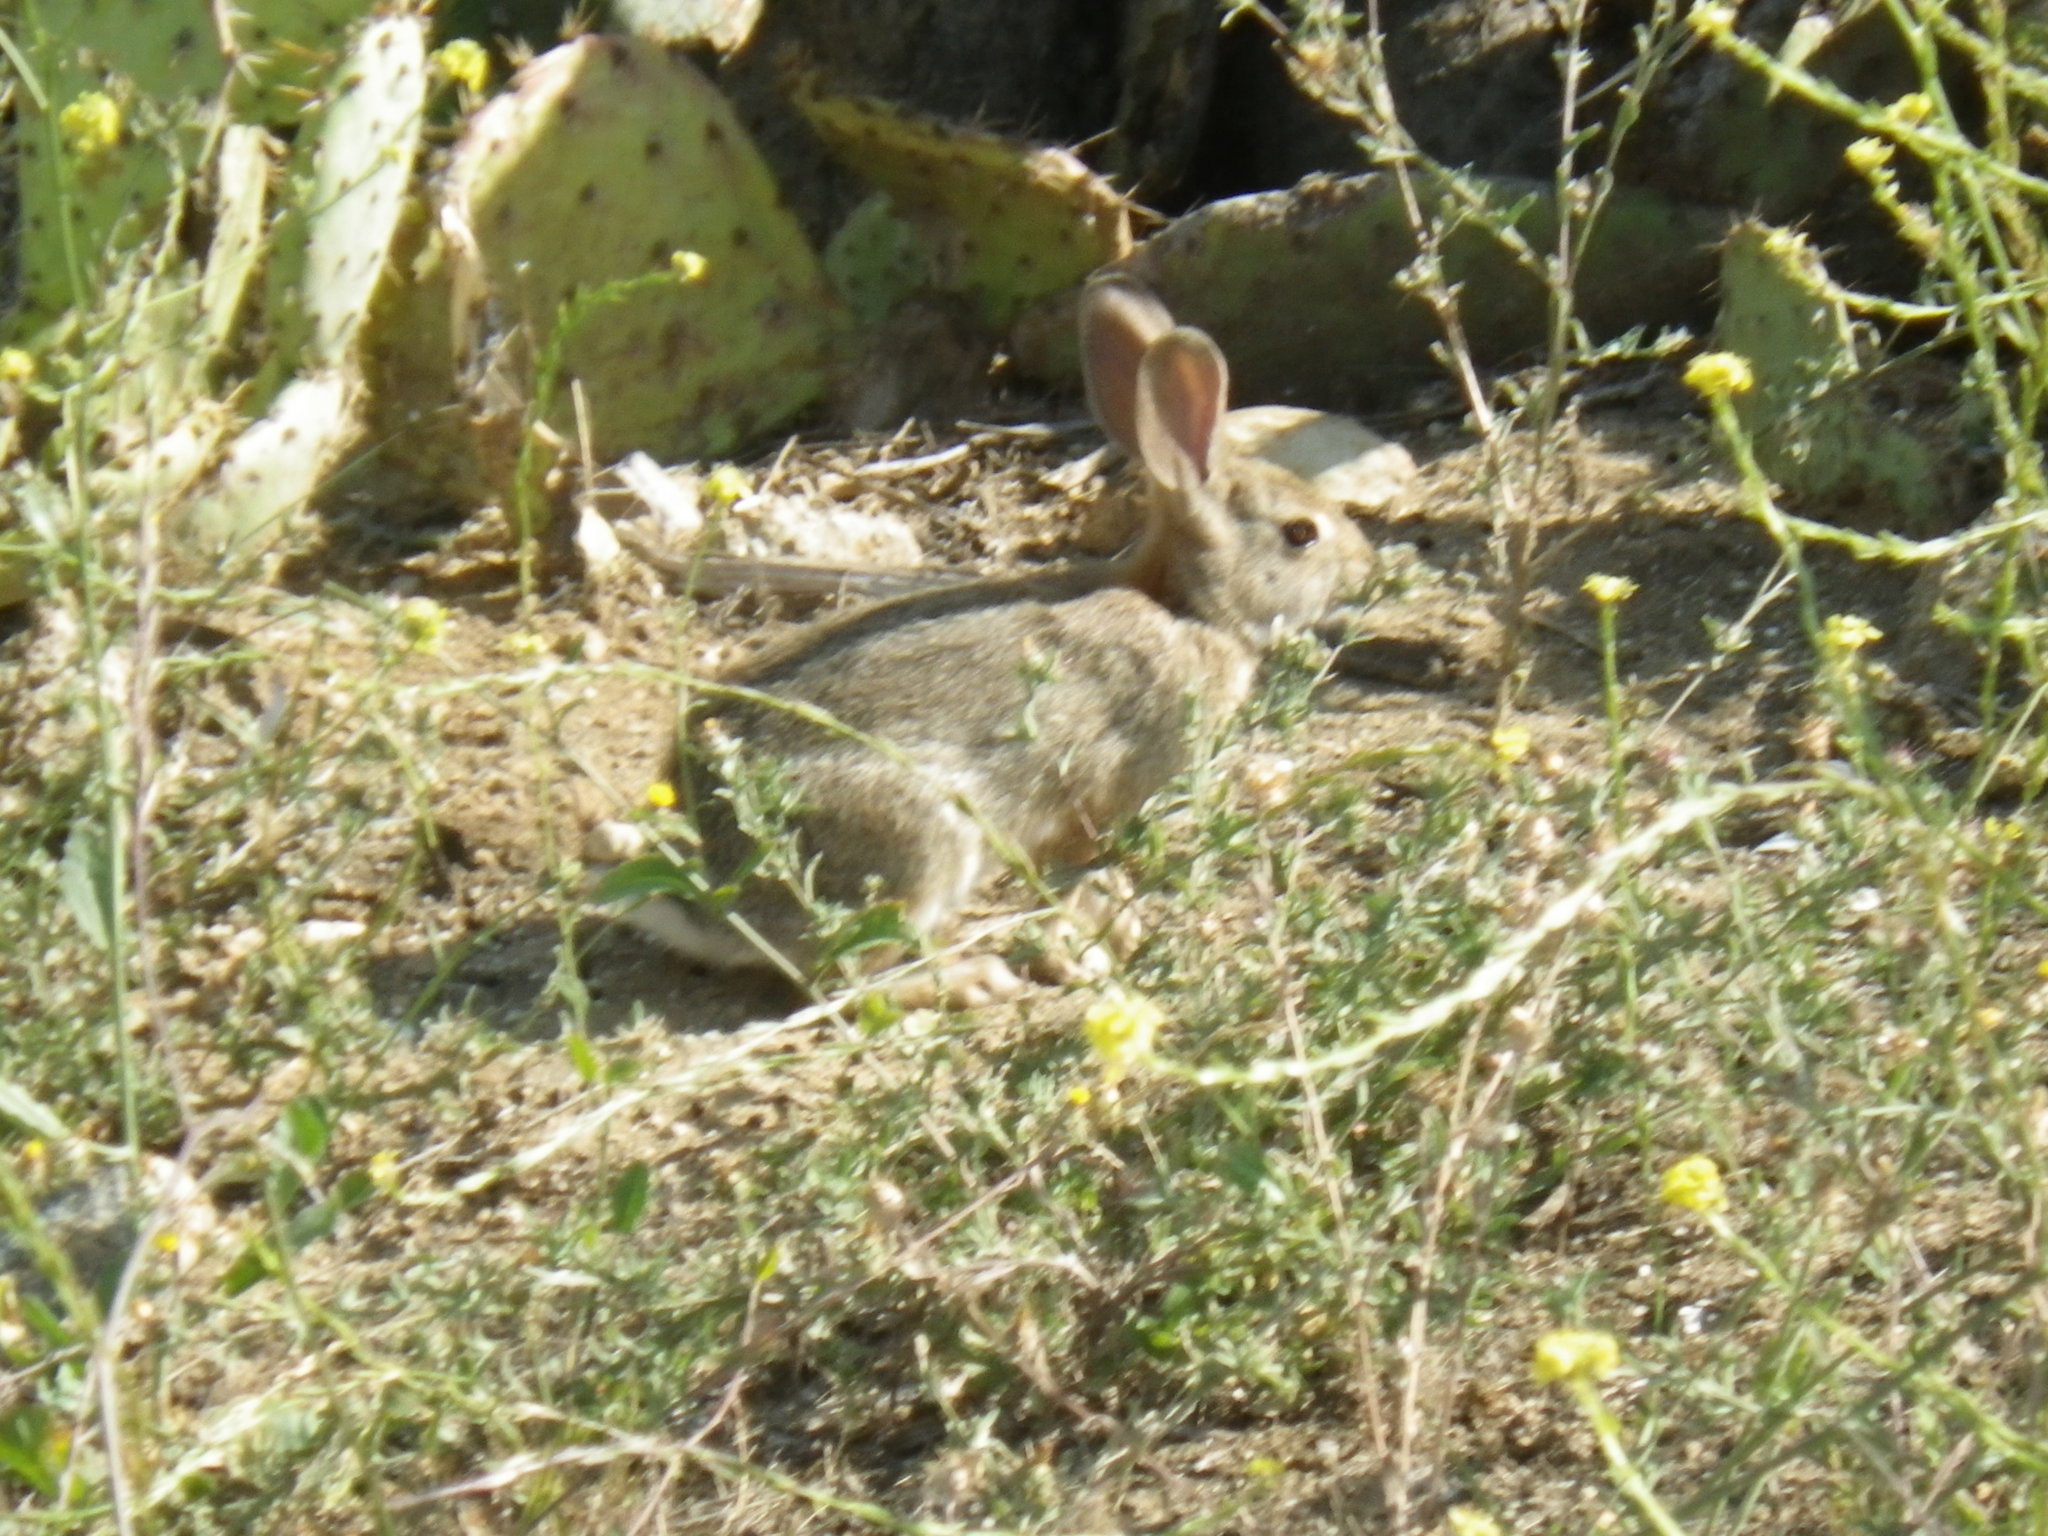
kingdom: Animalia
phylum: Chordata
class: Mammalia
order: Lagomorpha
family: Leporidae
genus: Sylvilagus
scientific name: Sylvilagus audubonii
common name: Desert cottontail
